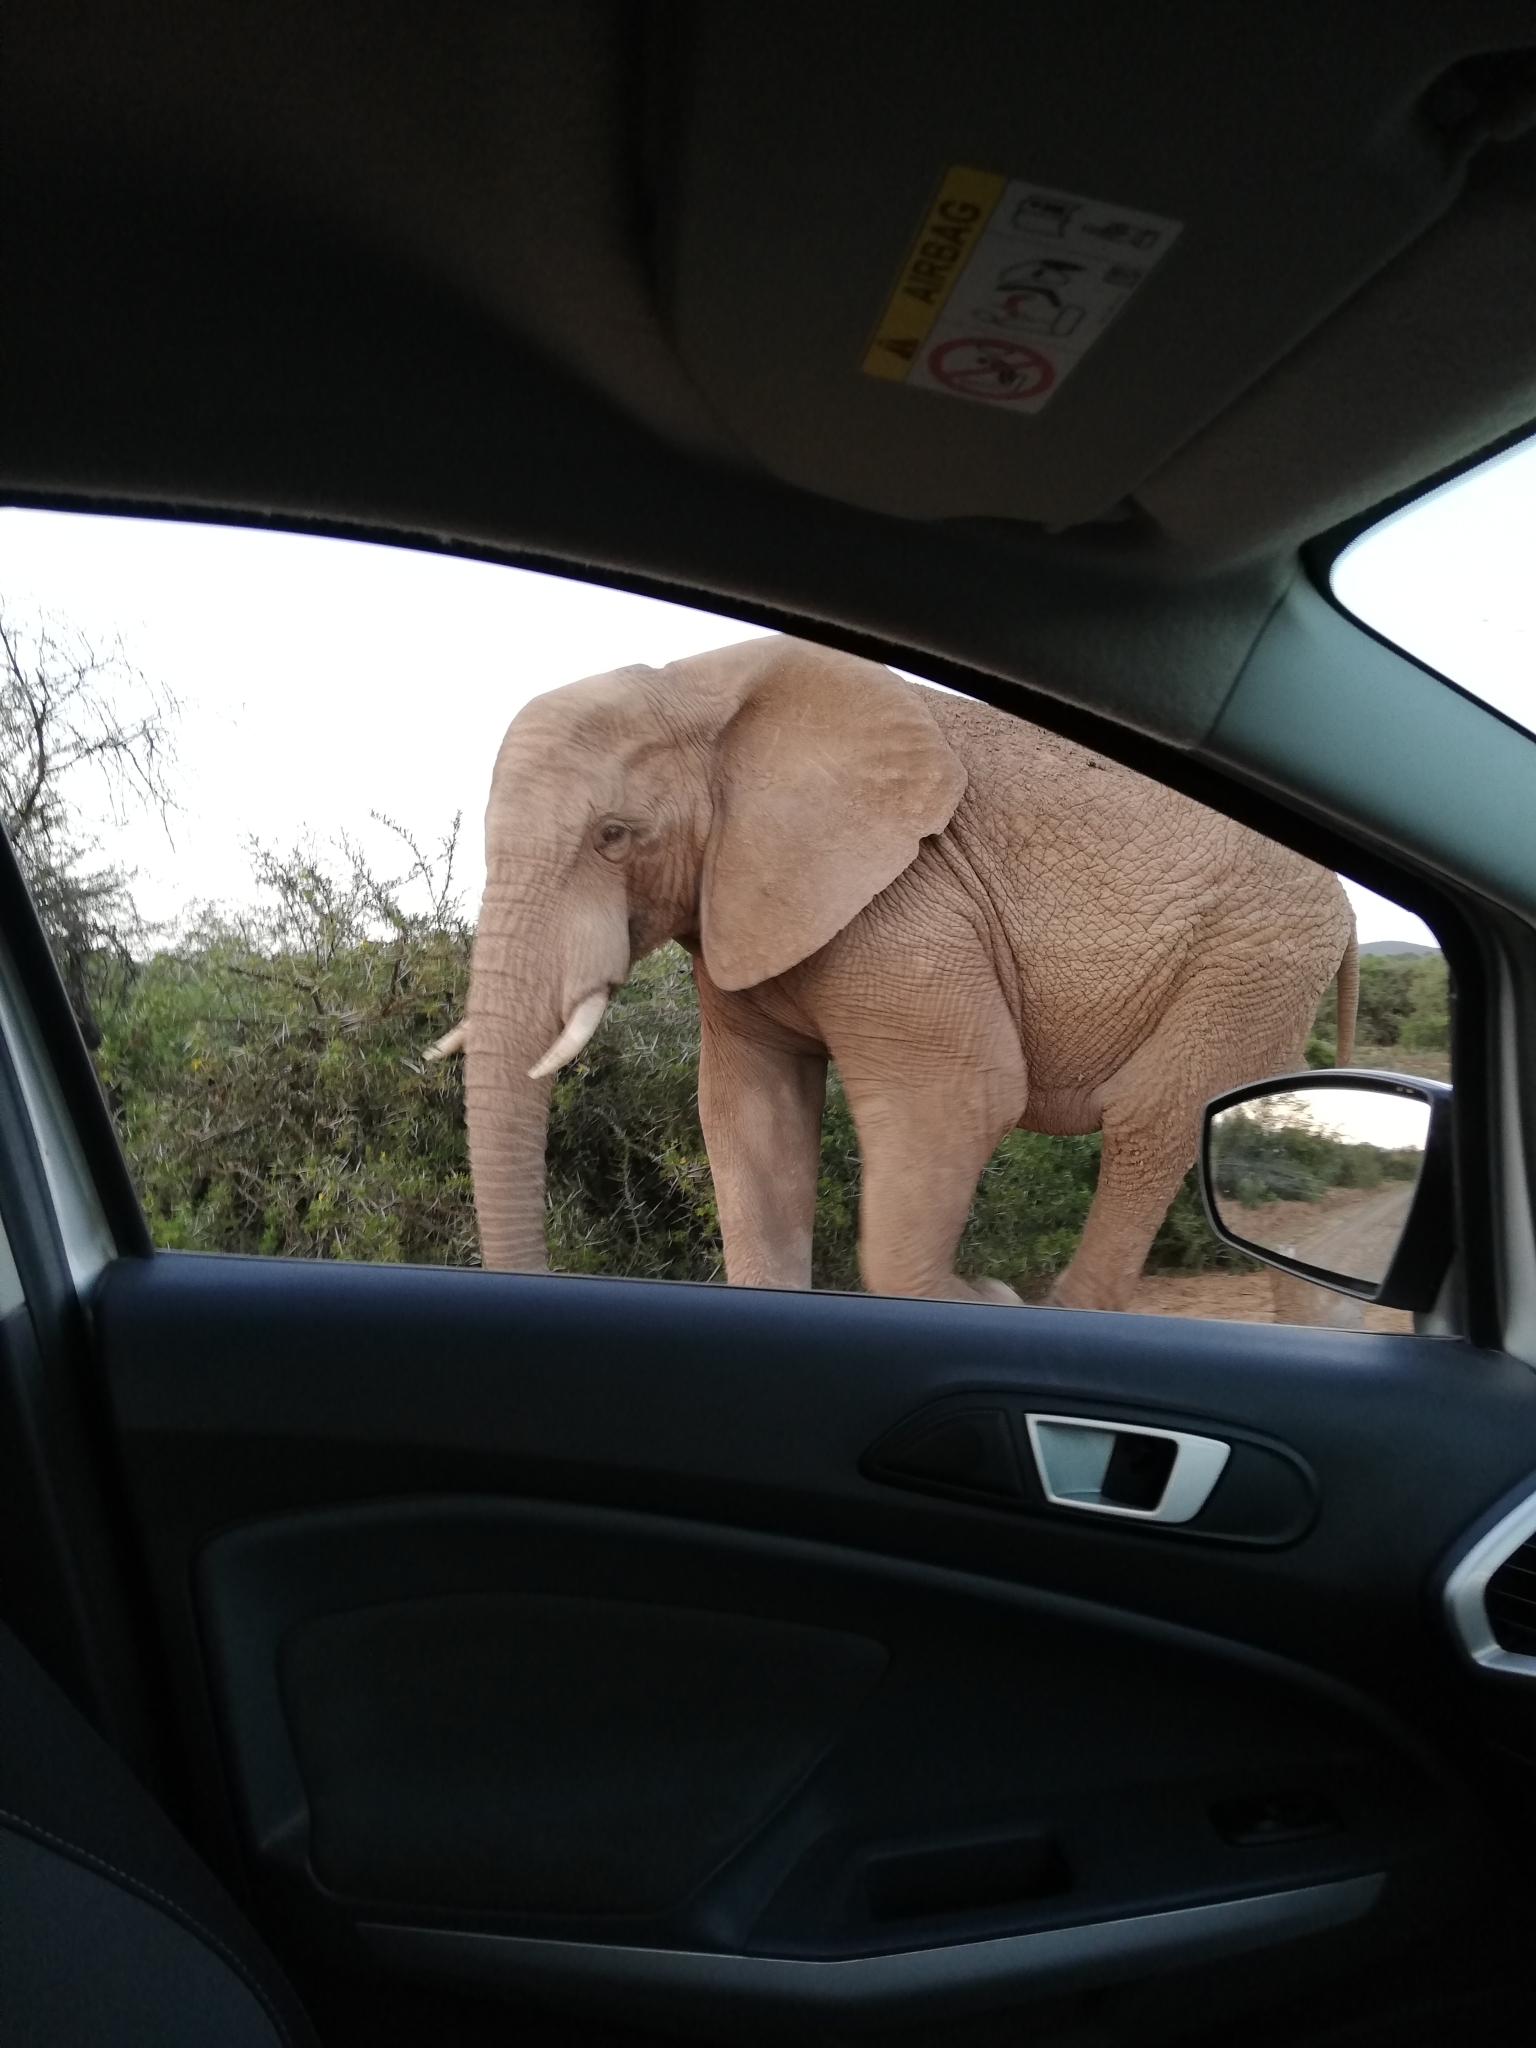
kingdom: Animalia
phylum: Chordata
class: Mammalia
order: Proboscidea
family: Elephantidae
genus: Loxodonta
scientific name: Loxodonta africana
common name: African elephant
